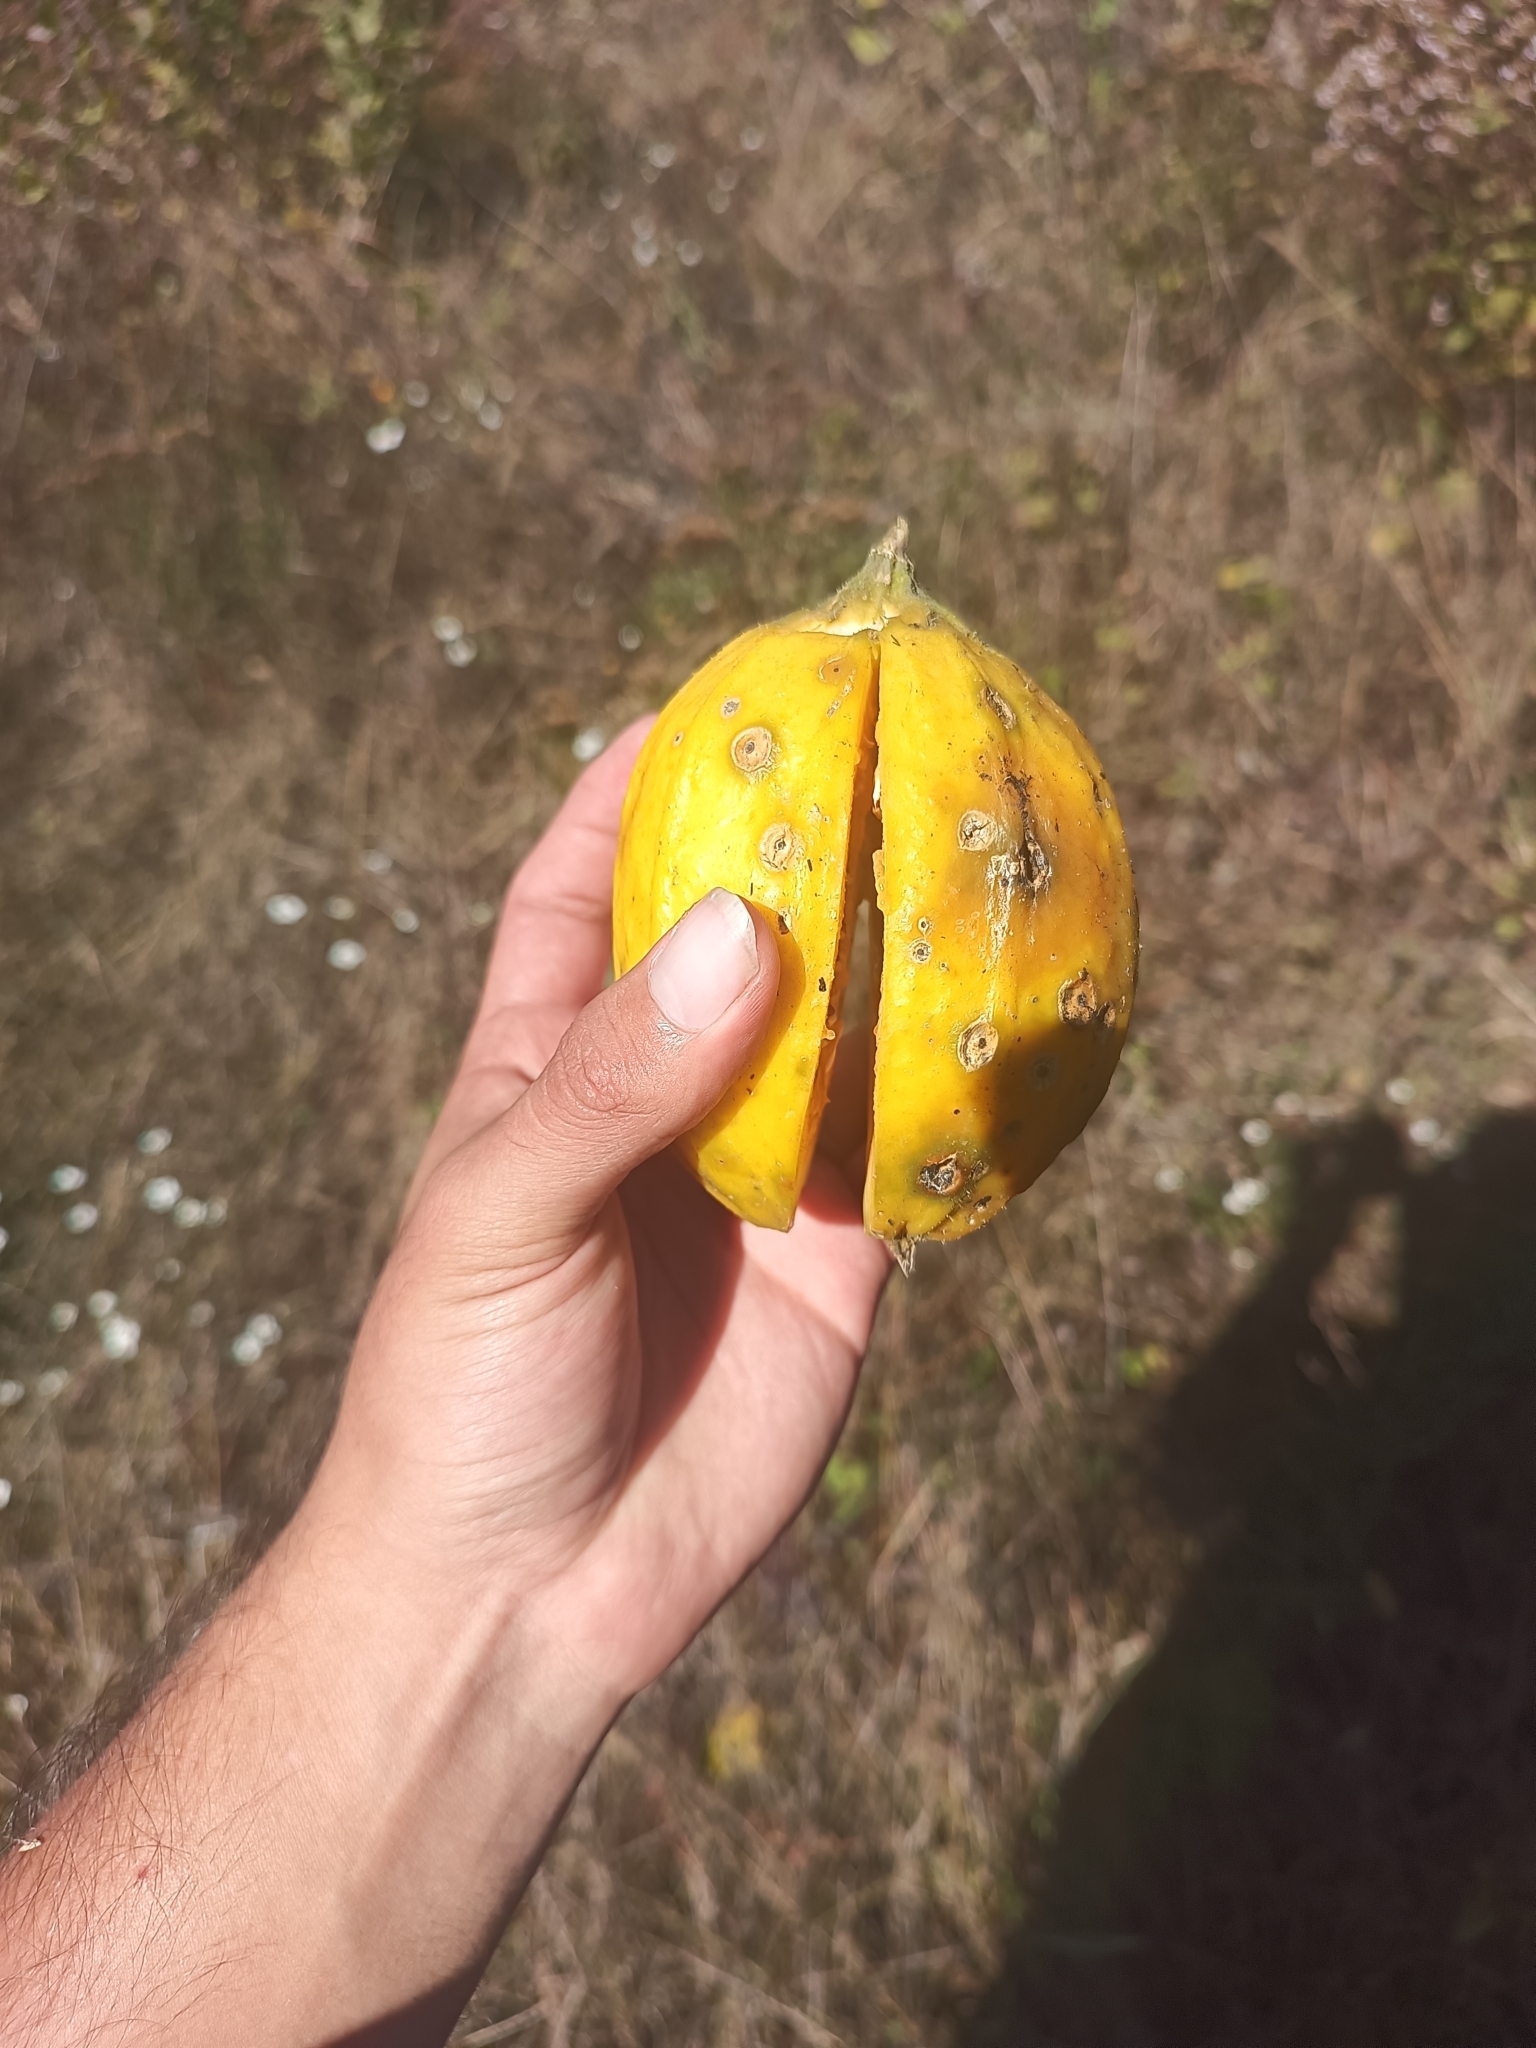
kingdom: Plantae
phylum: Tracheophyta
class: Magnoliopsida
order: Cucurbitales
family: Cucurbitaceae
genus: Apodanthera
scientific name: Apodanthera undulata
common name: Melon-loco
